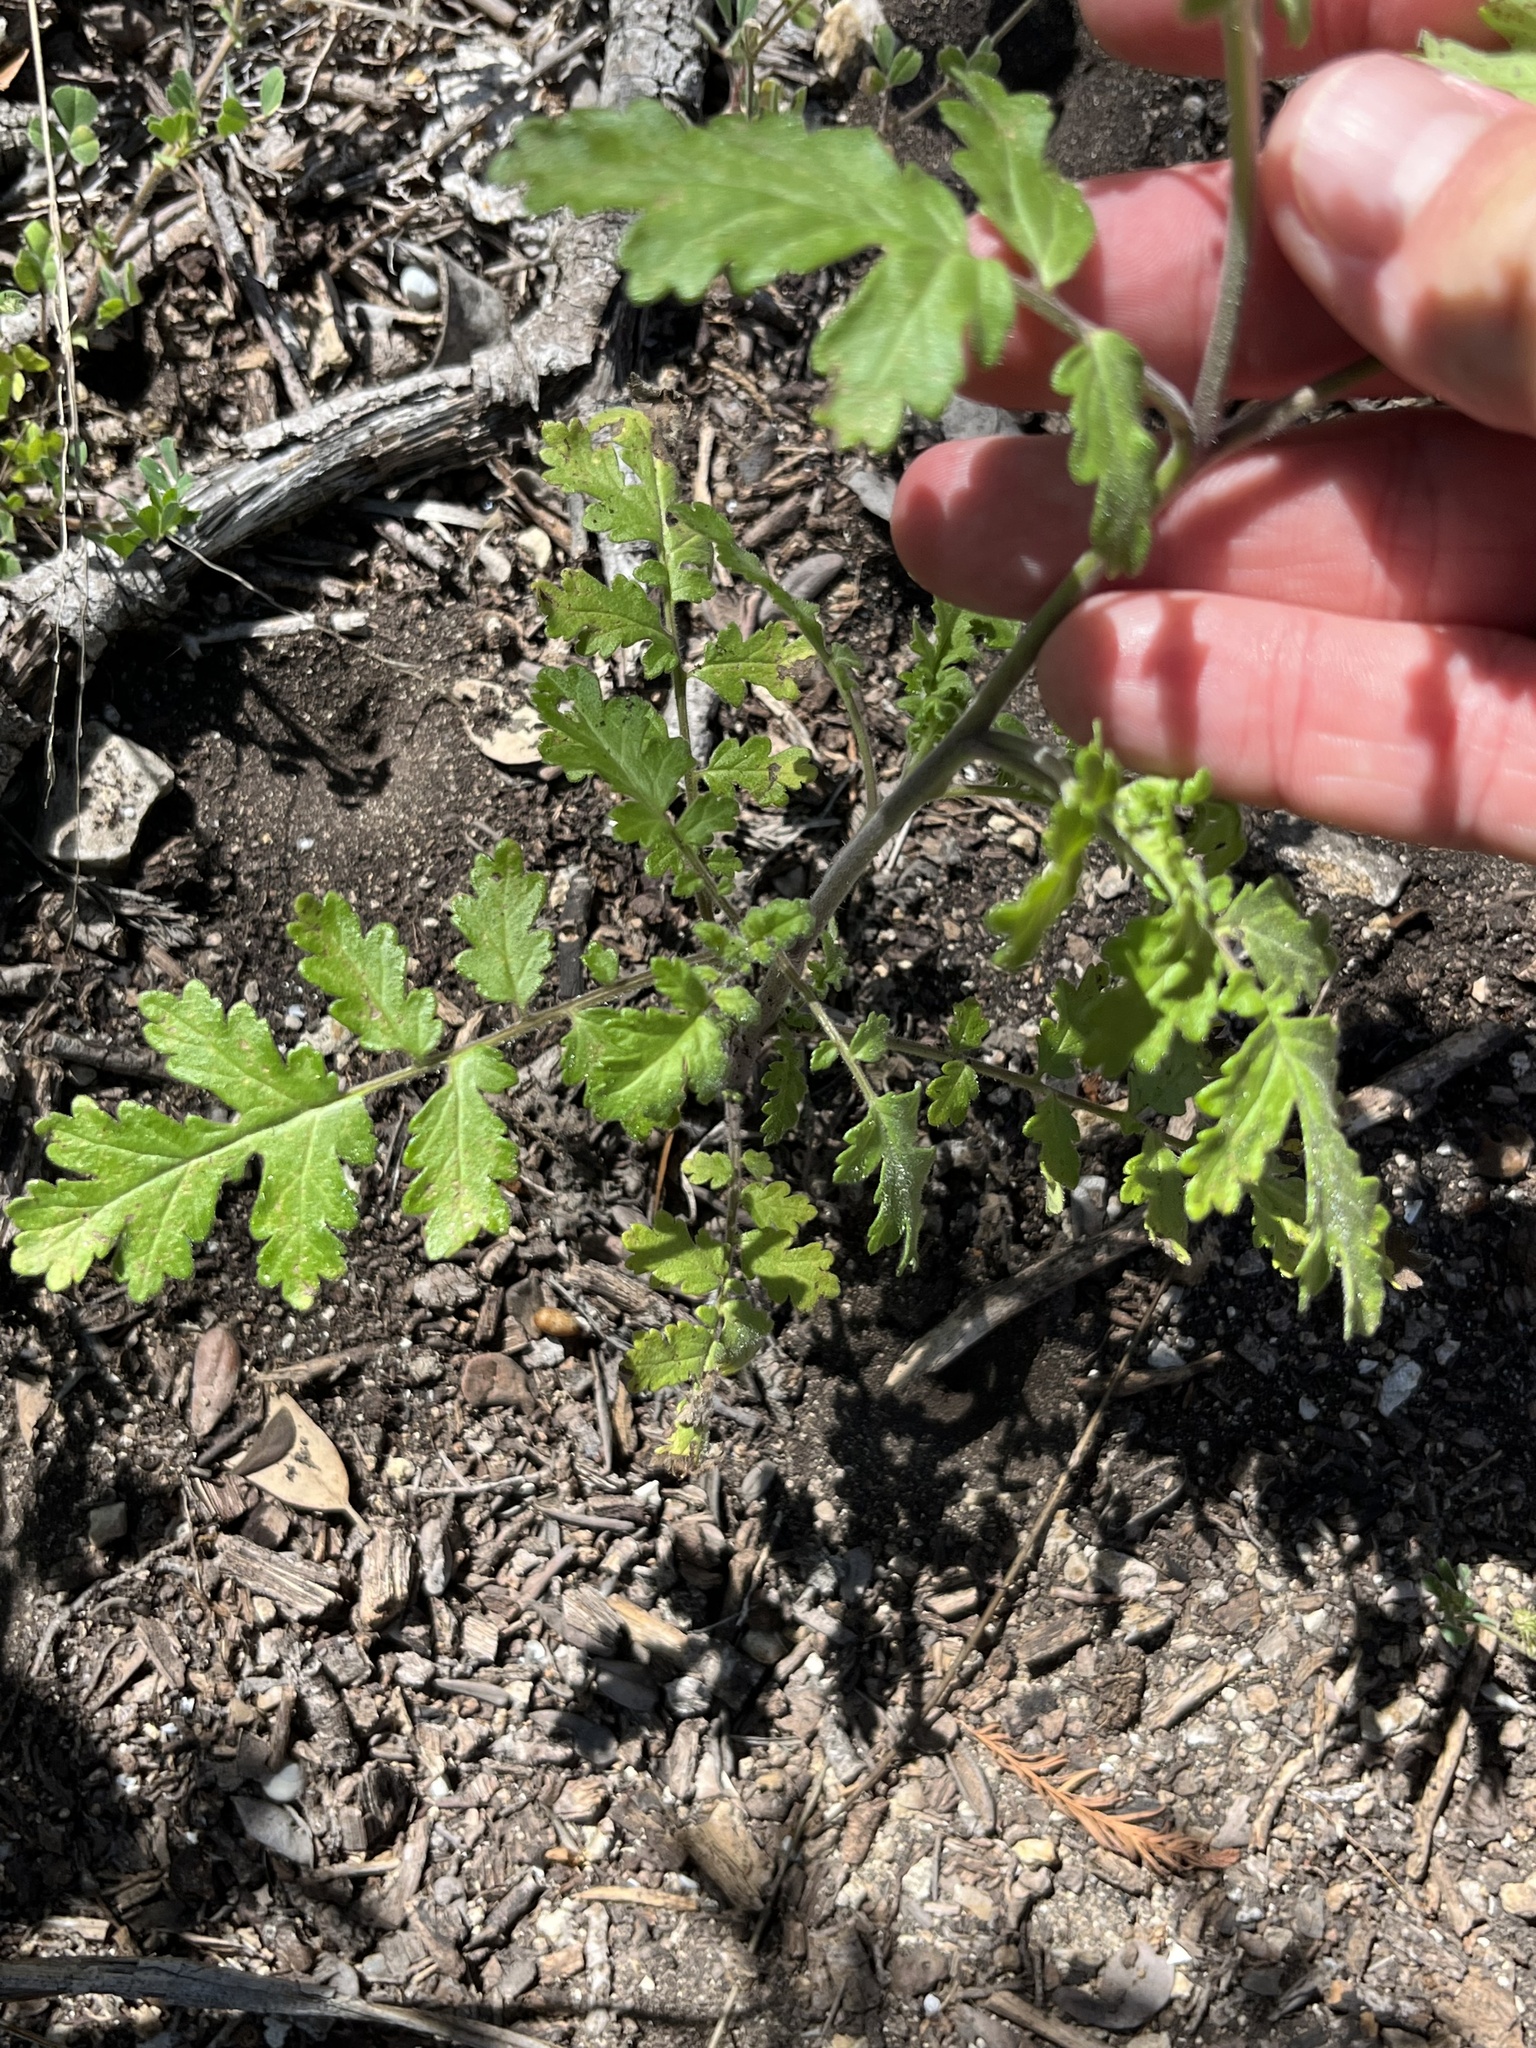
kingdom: Plantae
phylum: Tracheophyta
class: Magnoliopsida
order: Boraginales
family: Hydrophyllaceae
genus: Phacelia
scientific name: Phacelia congesta
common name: Blue curls
